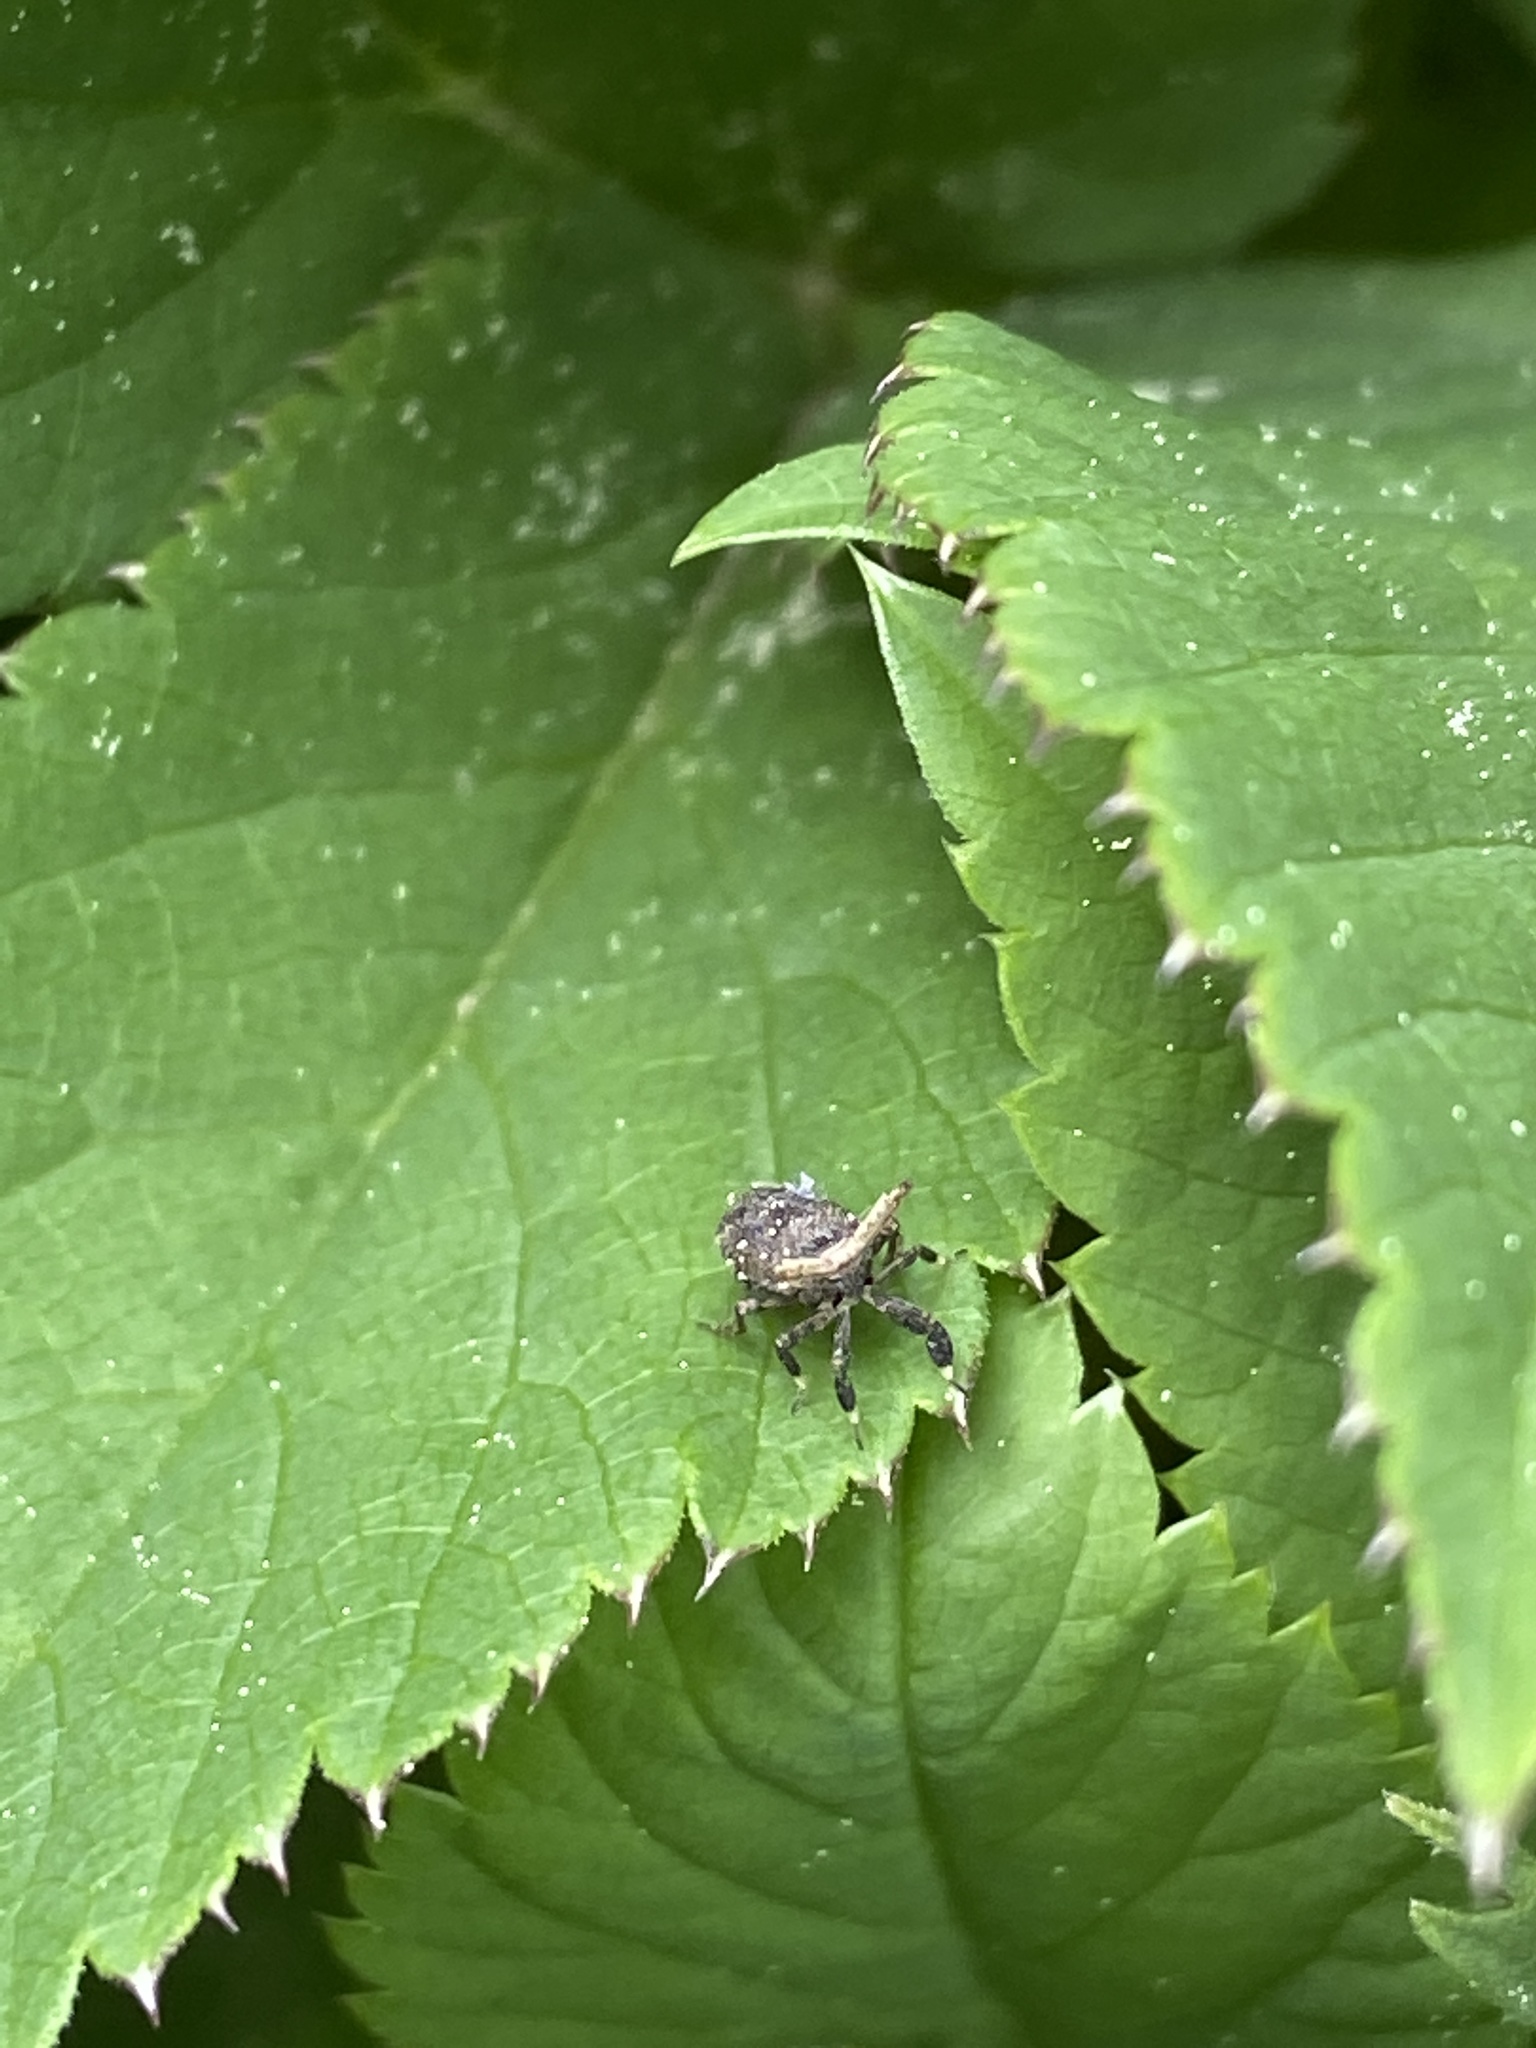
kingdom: Animalia
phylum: Arthropoda
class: Insecta
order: Hemiptera
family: Delphacidae
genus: Asiraca
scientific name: Asiraca clavicornis
